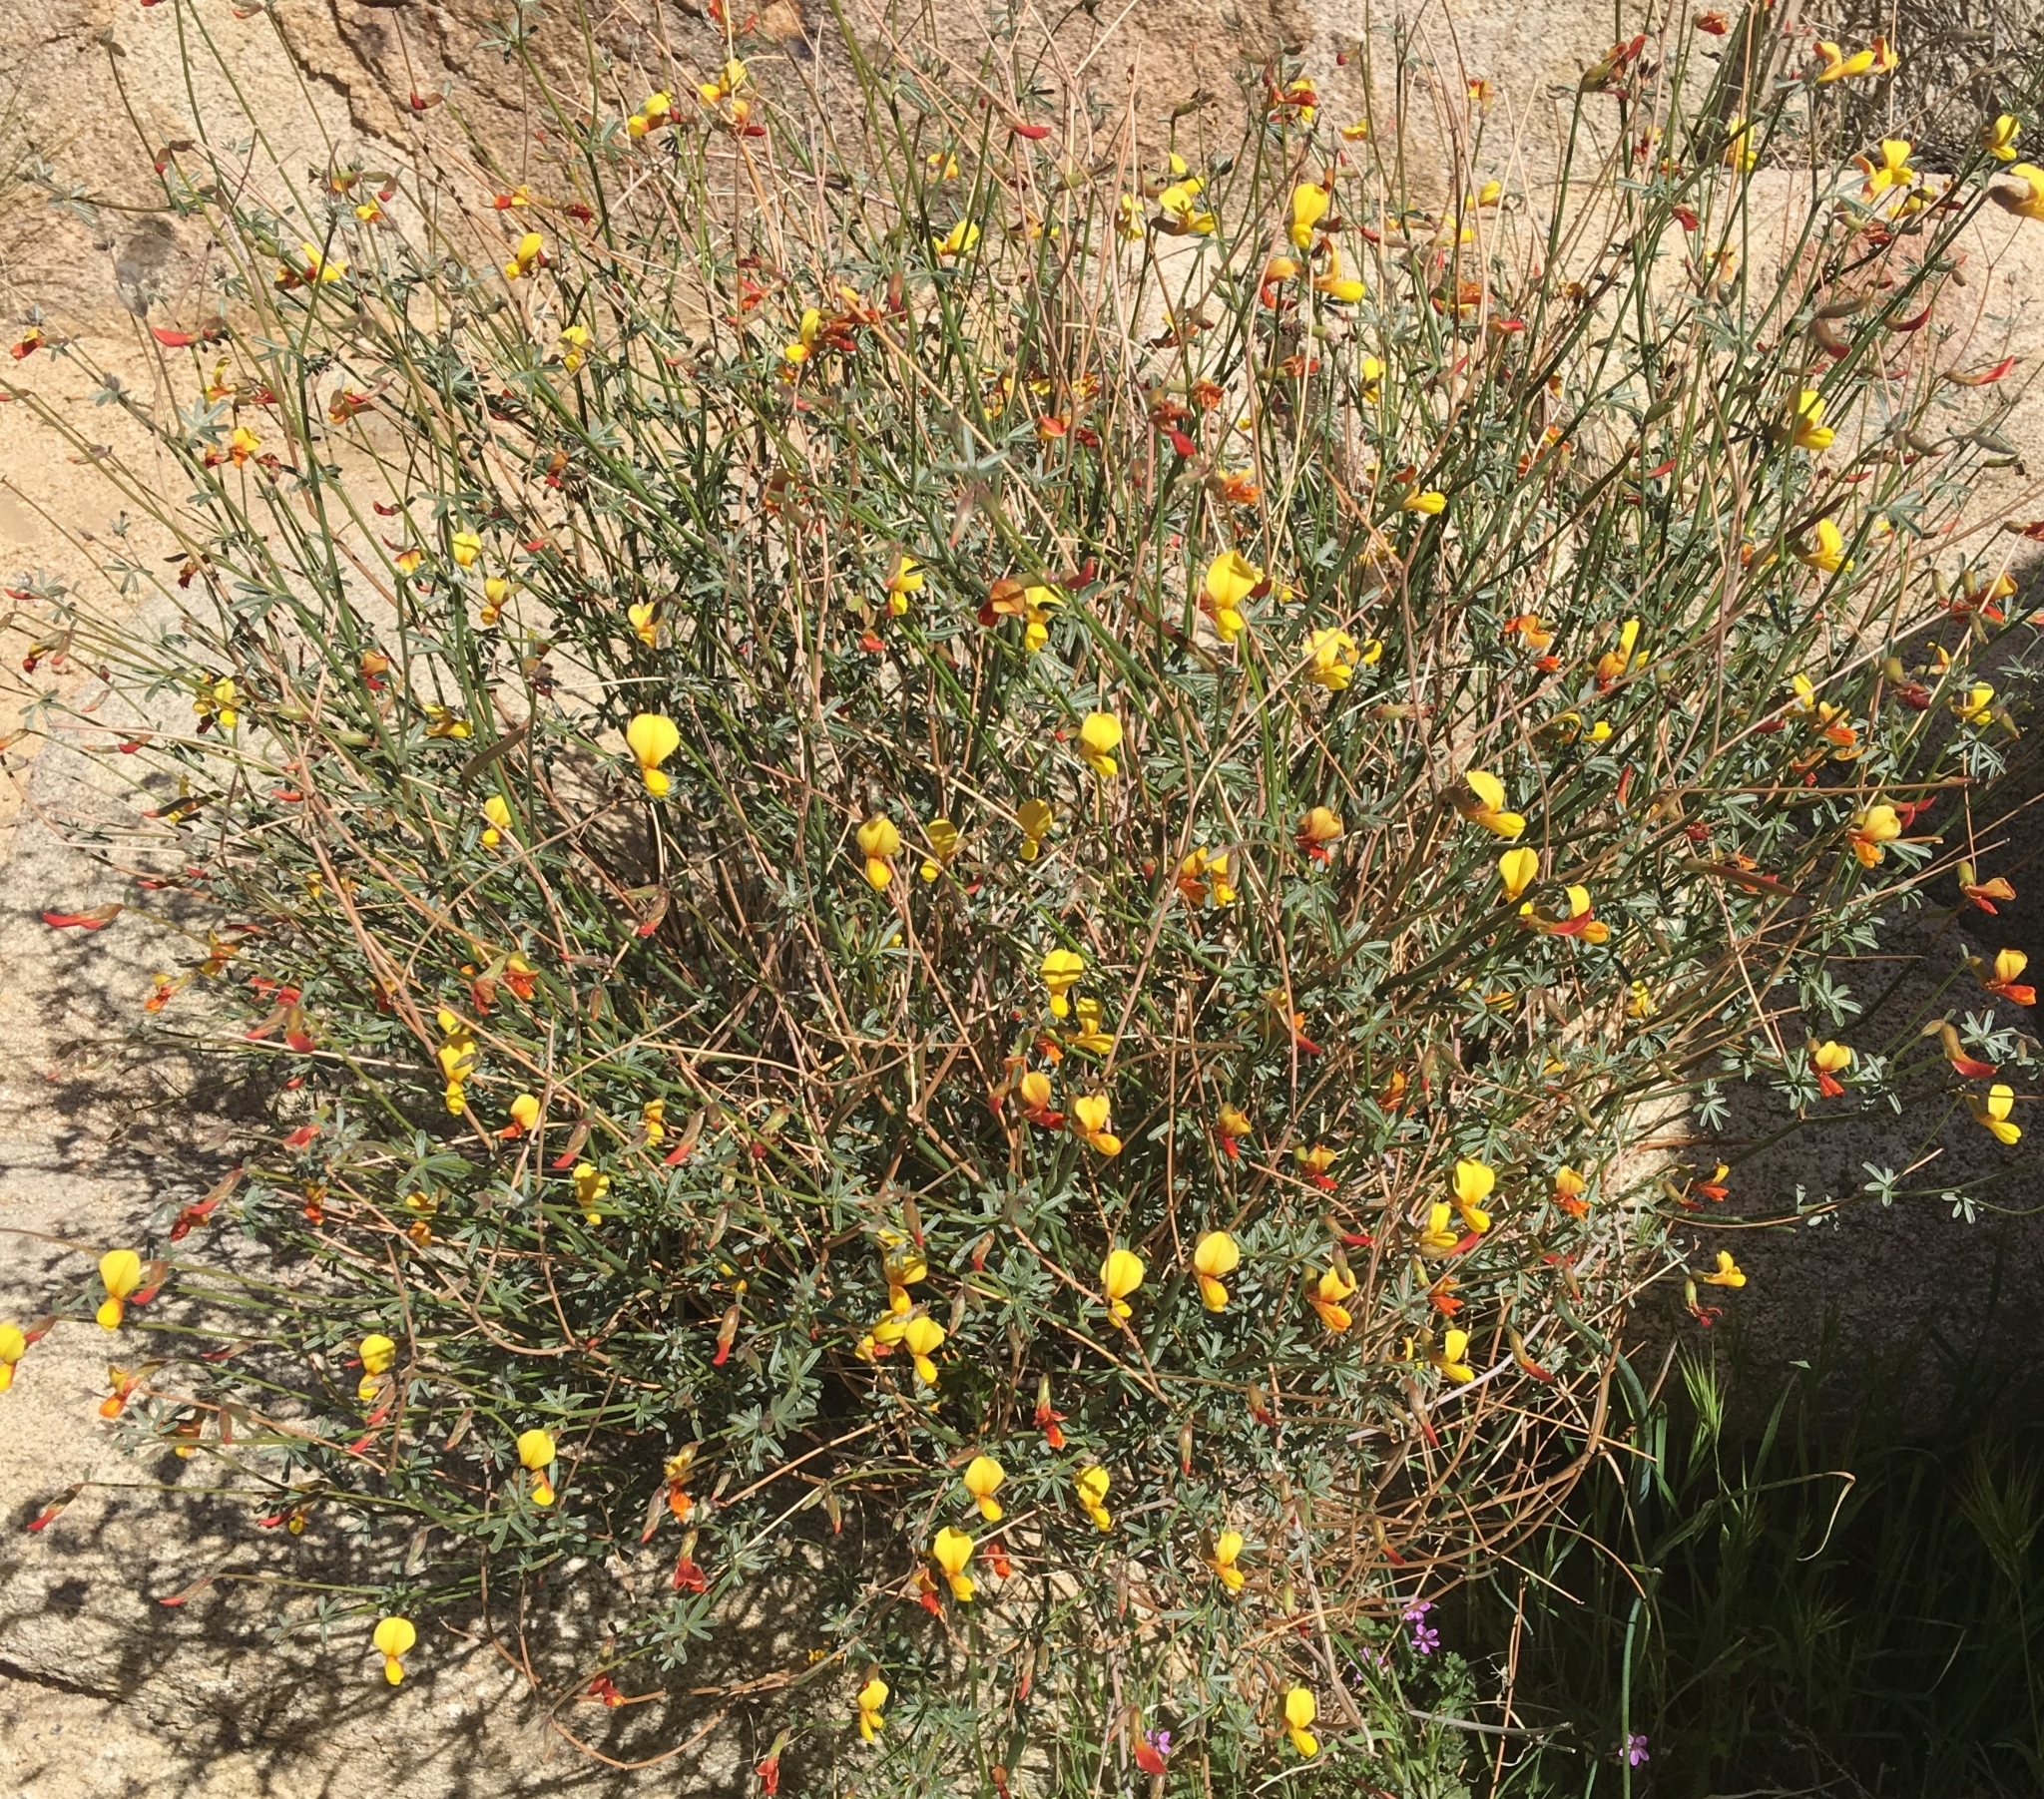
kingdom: Plantae
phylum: Tracheophyta
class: Magnoliopsida
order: Fabales
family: Fabaceae
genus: Acmispon
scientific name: Acmispon rigidus
